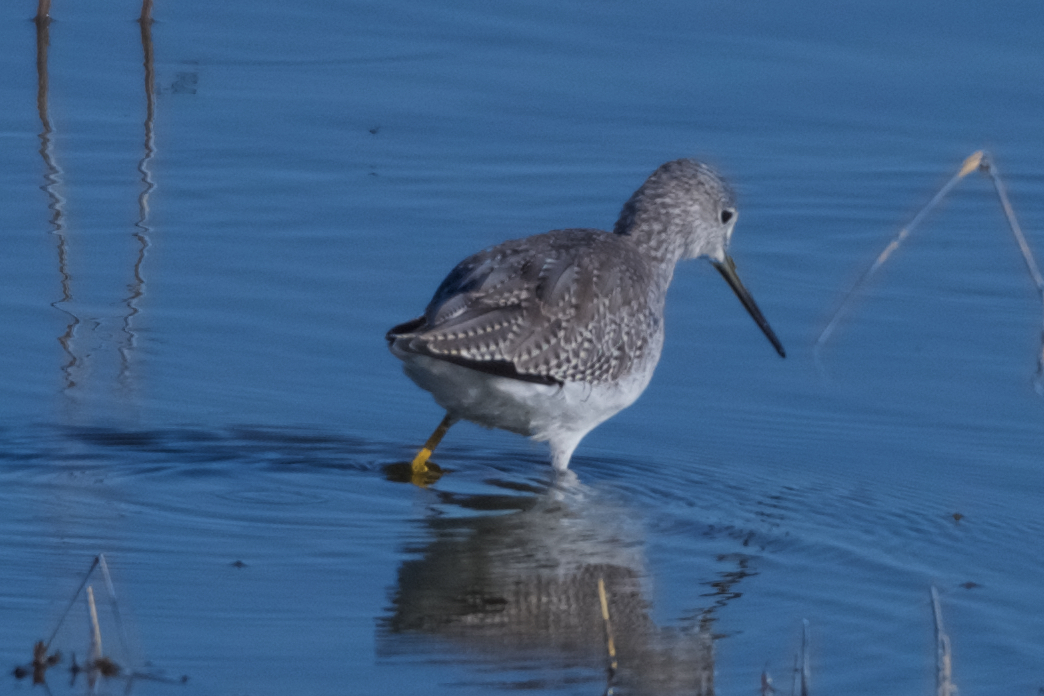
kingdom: Animalia
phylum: Chordata
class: Aves
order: Charadriiformes
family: Scolopacidae
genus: Tringa
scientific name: Tringa melanoleuca
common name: Greater yellowlegs
